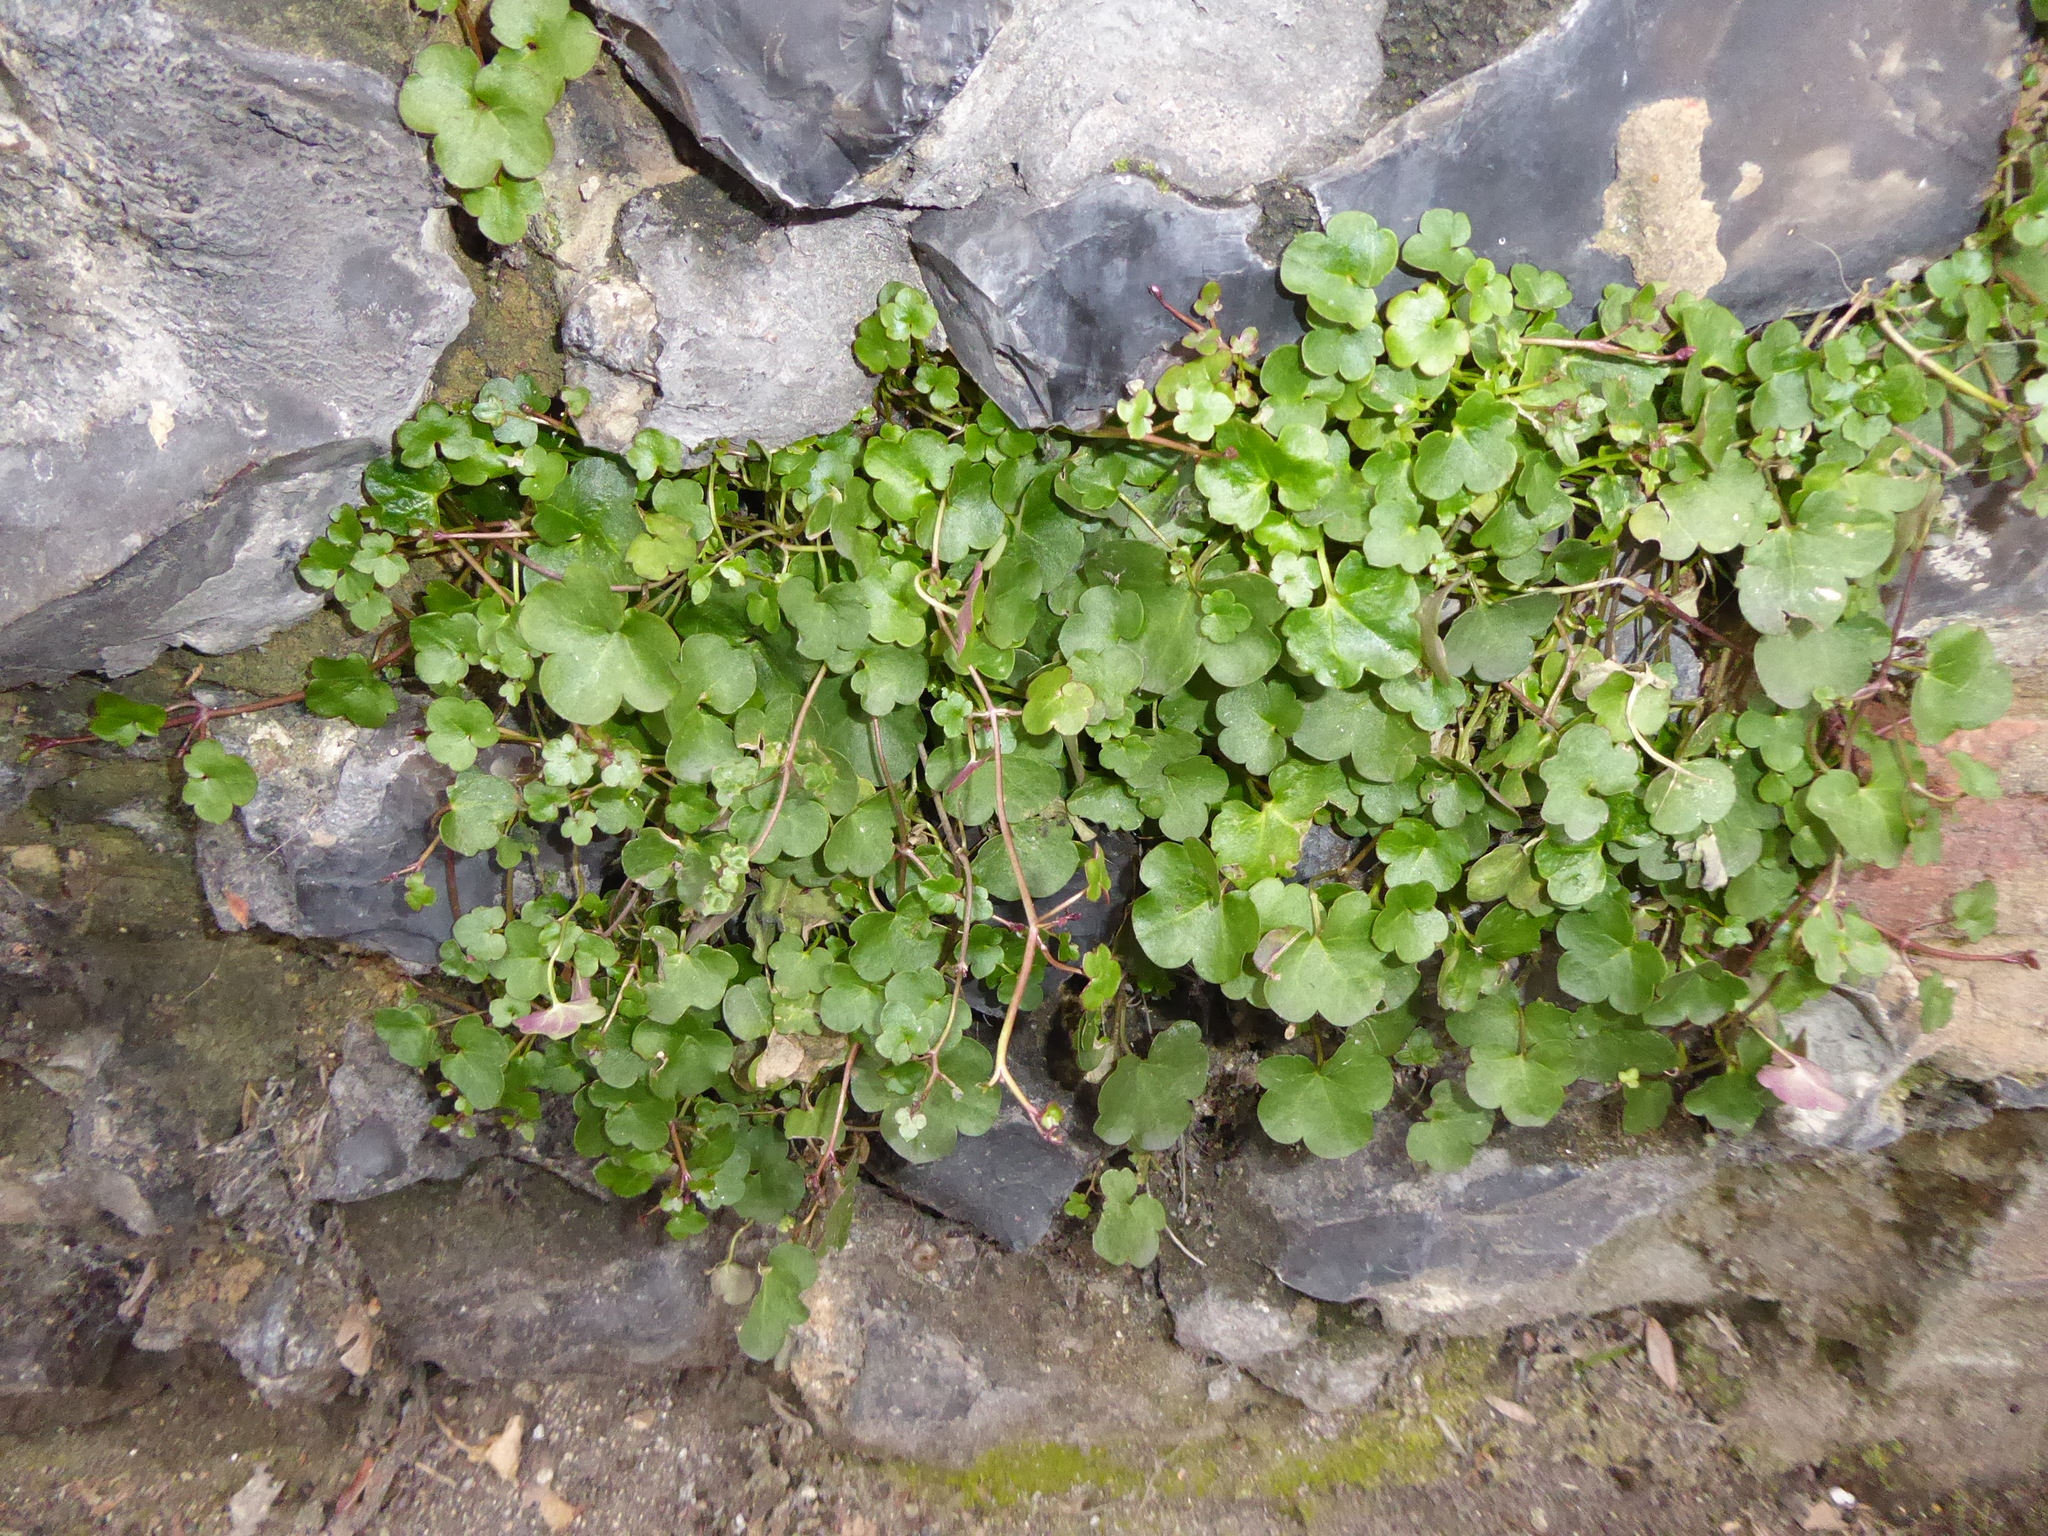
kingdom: Plantae
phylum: Tracheophyta
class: Magnoliopsida
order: Lamiales
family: Plantaginaceae
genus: Cymbalaria
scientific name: Cymbalaria muralis
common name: Ivy-leaved toadflax
